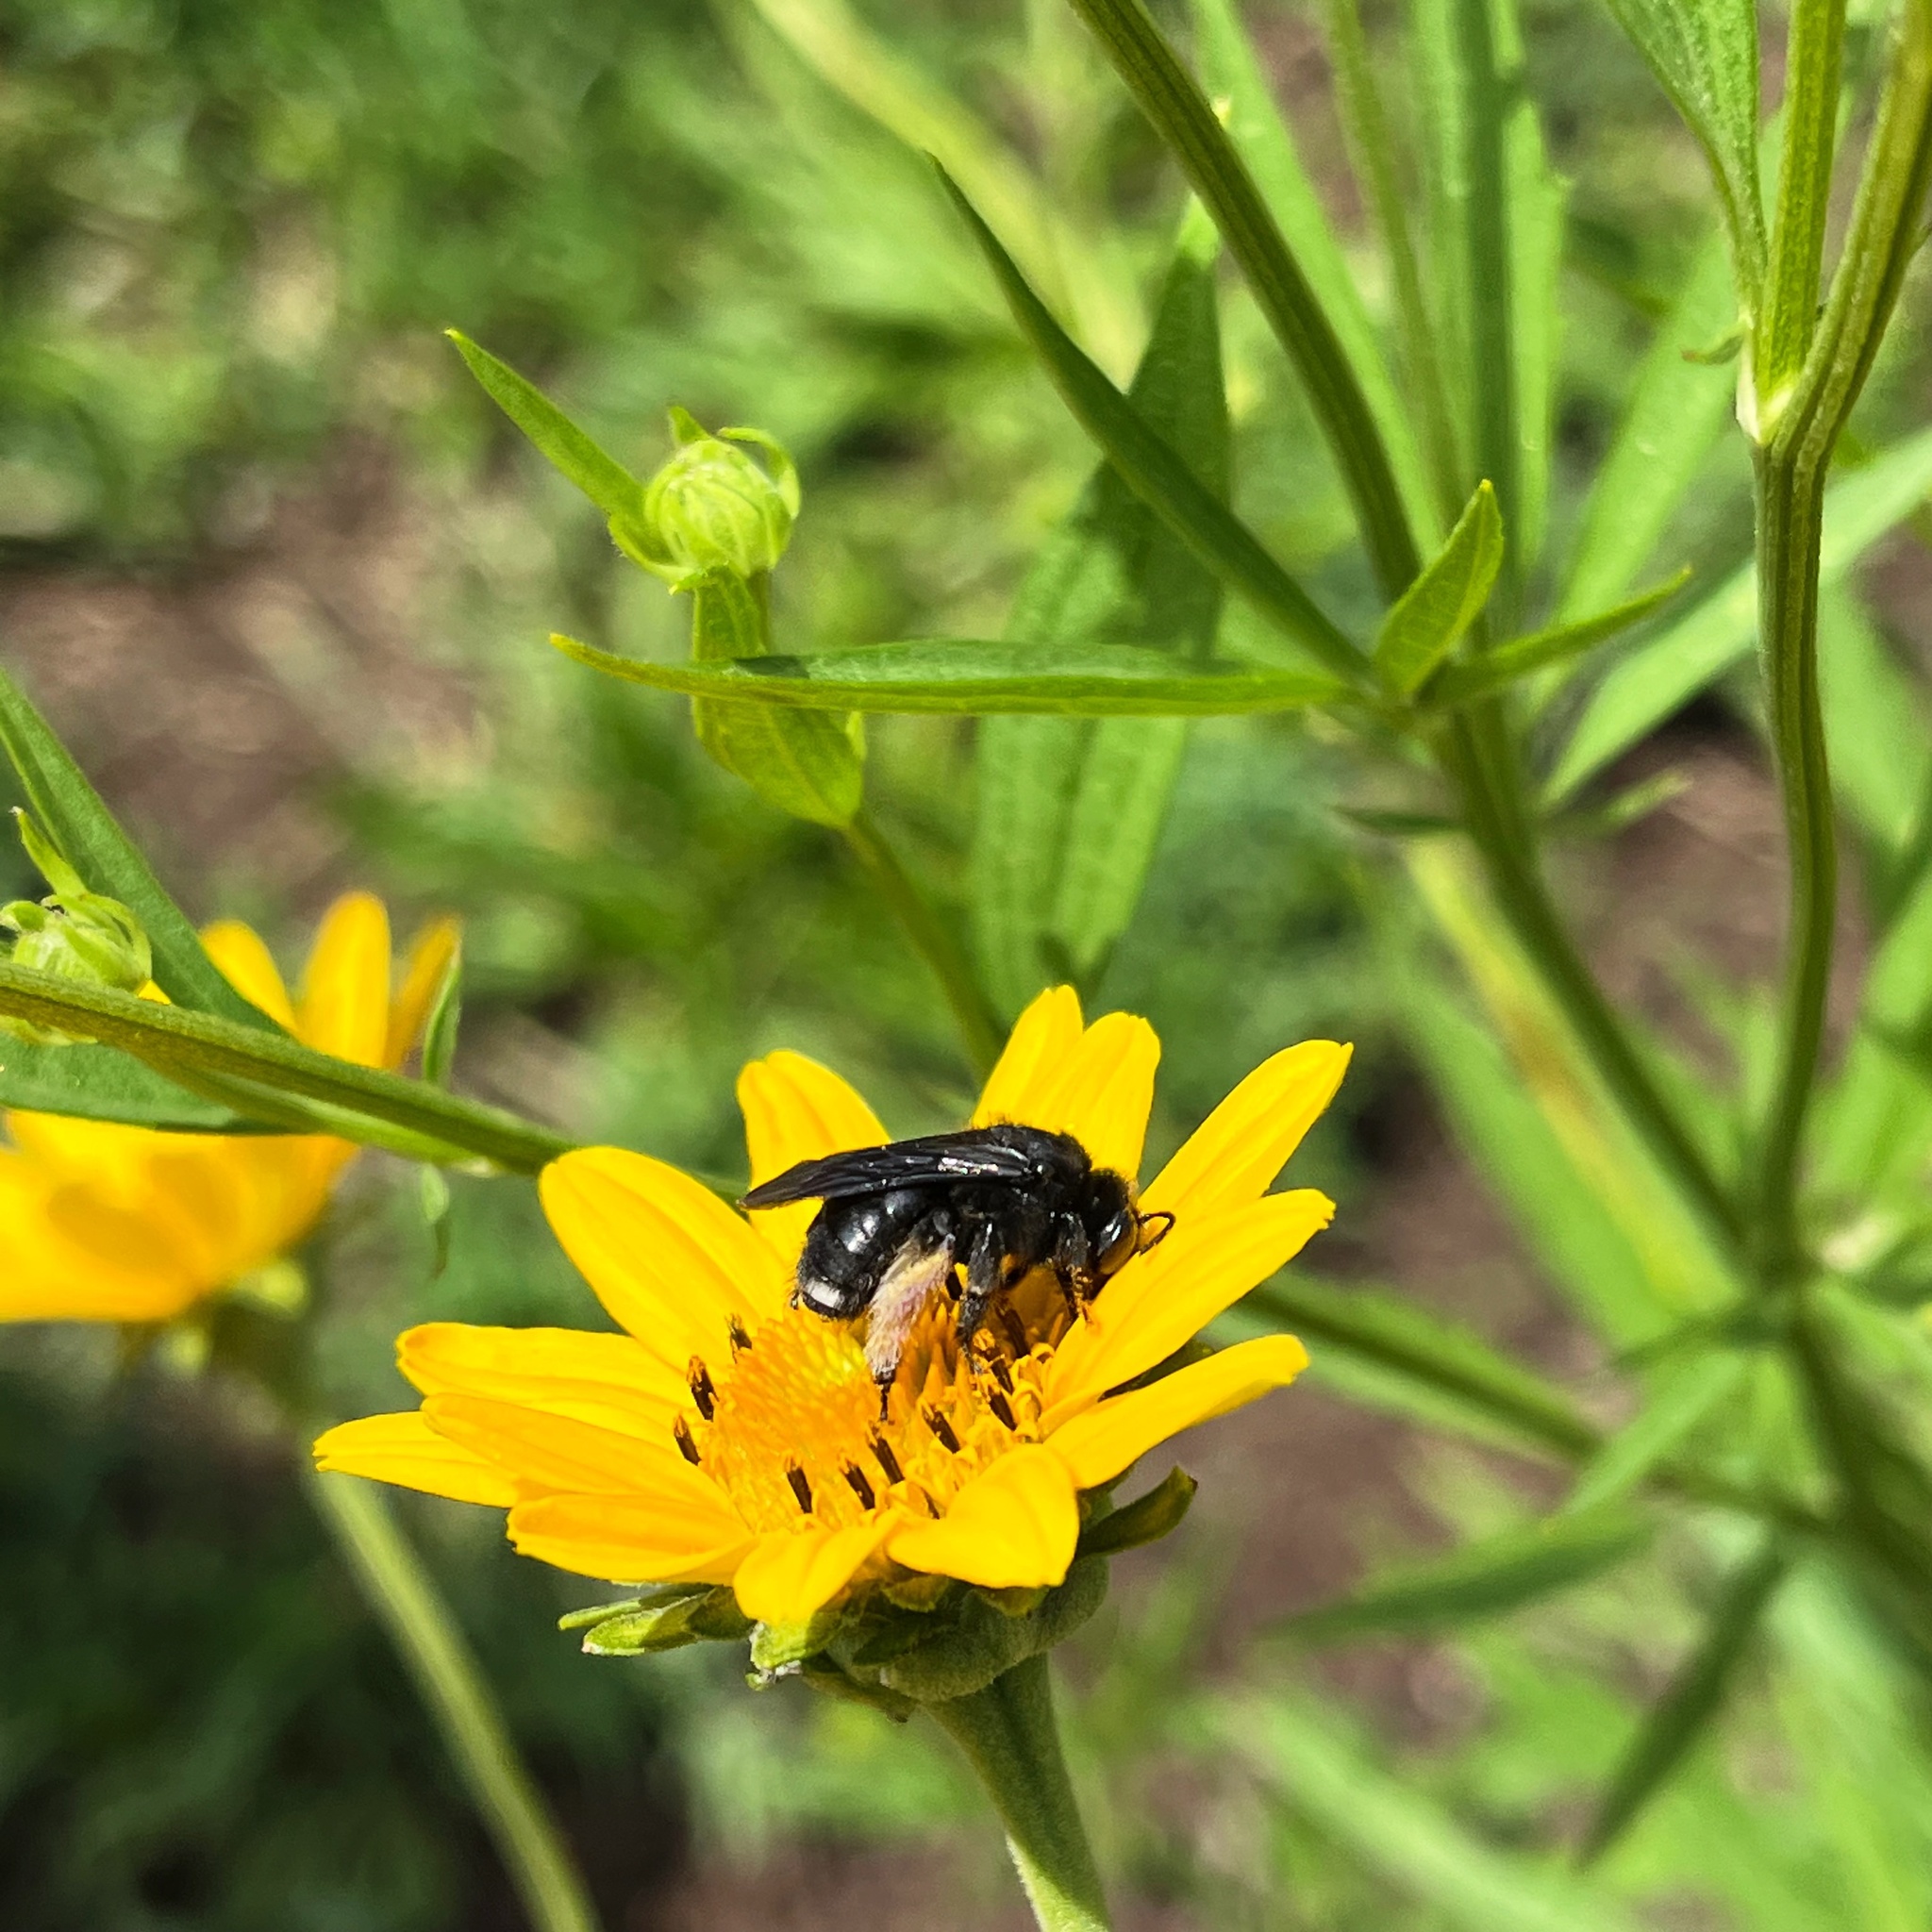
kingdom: Animalia
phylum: Arthropoda
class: Insecta
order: Hymenoptera
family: Apidae
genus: Melissodes
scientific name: Melissodes bimaculatus
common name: Two-spotted long-horned bee
